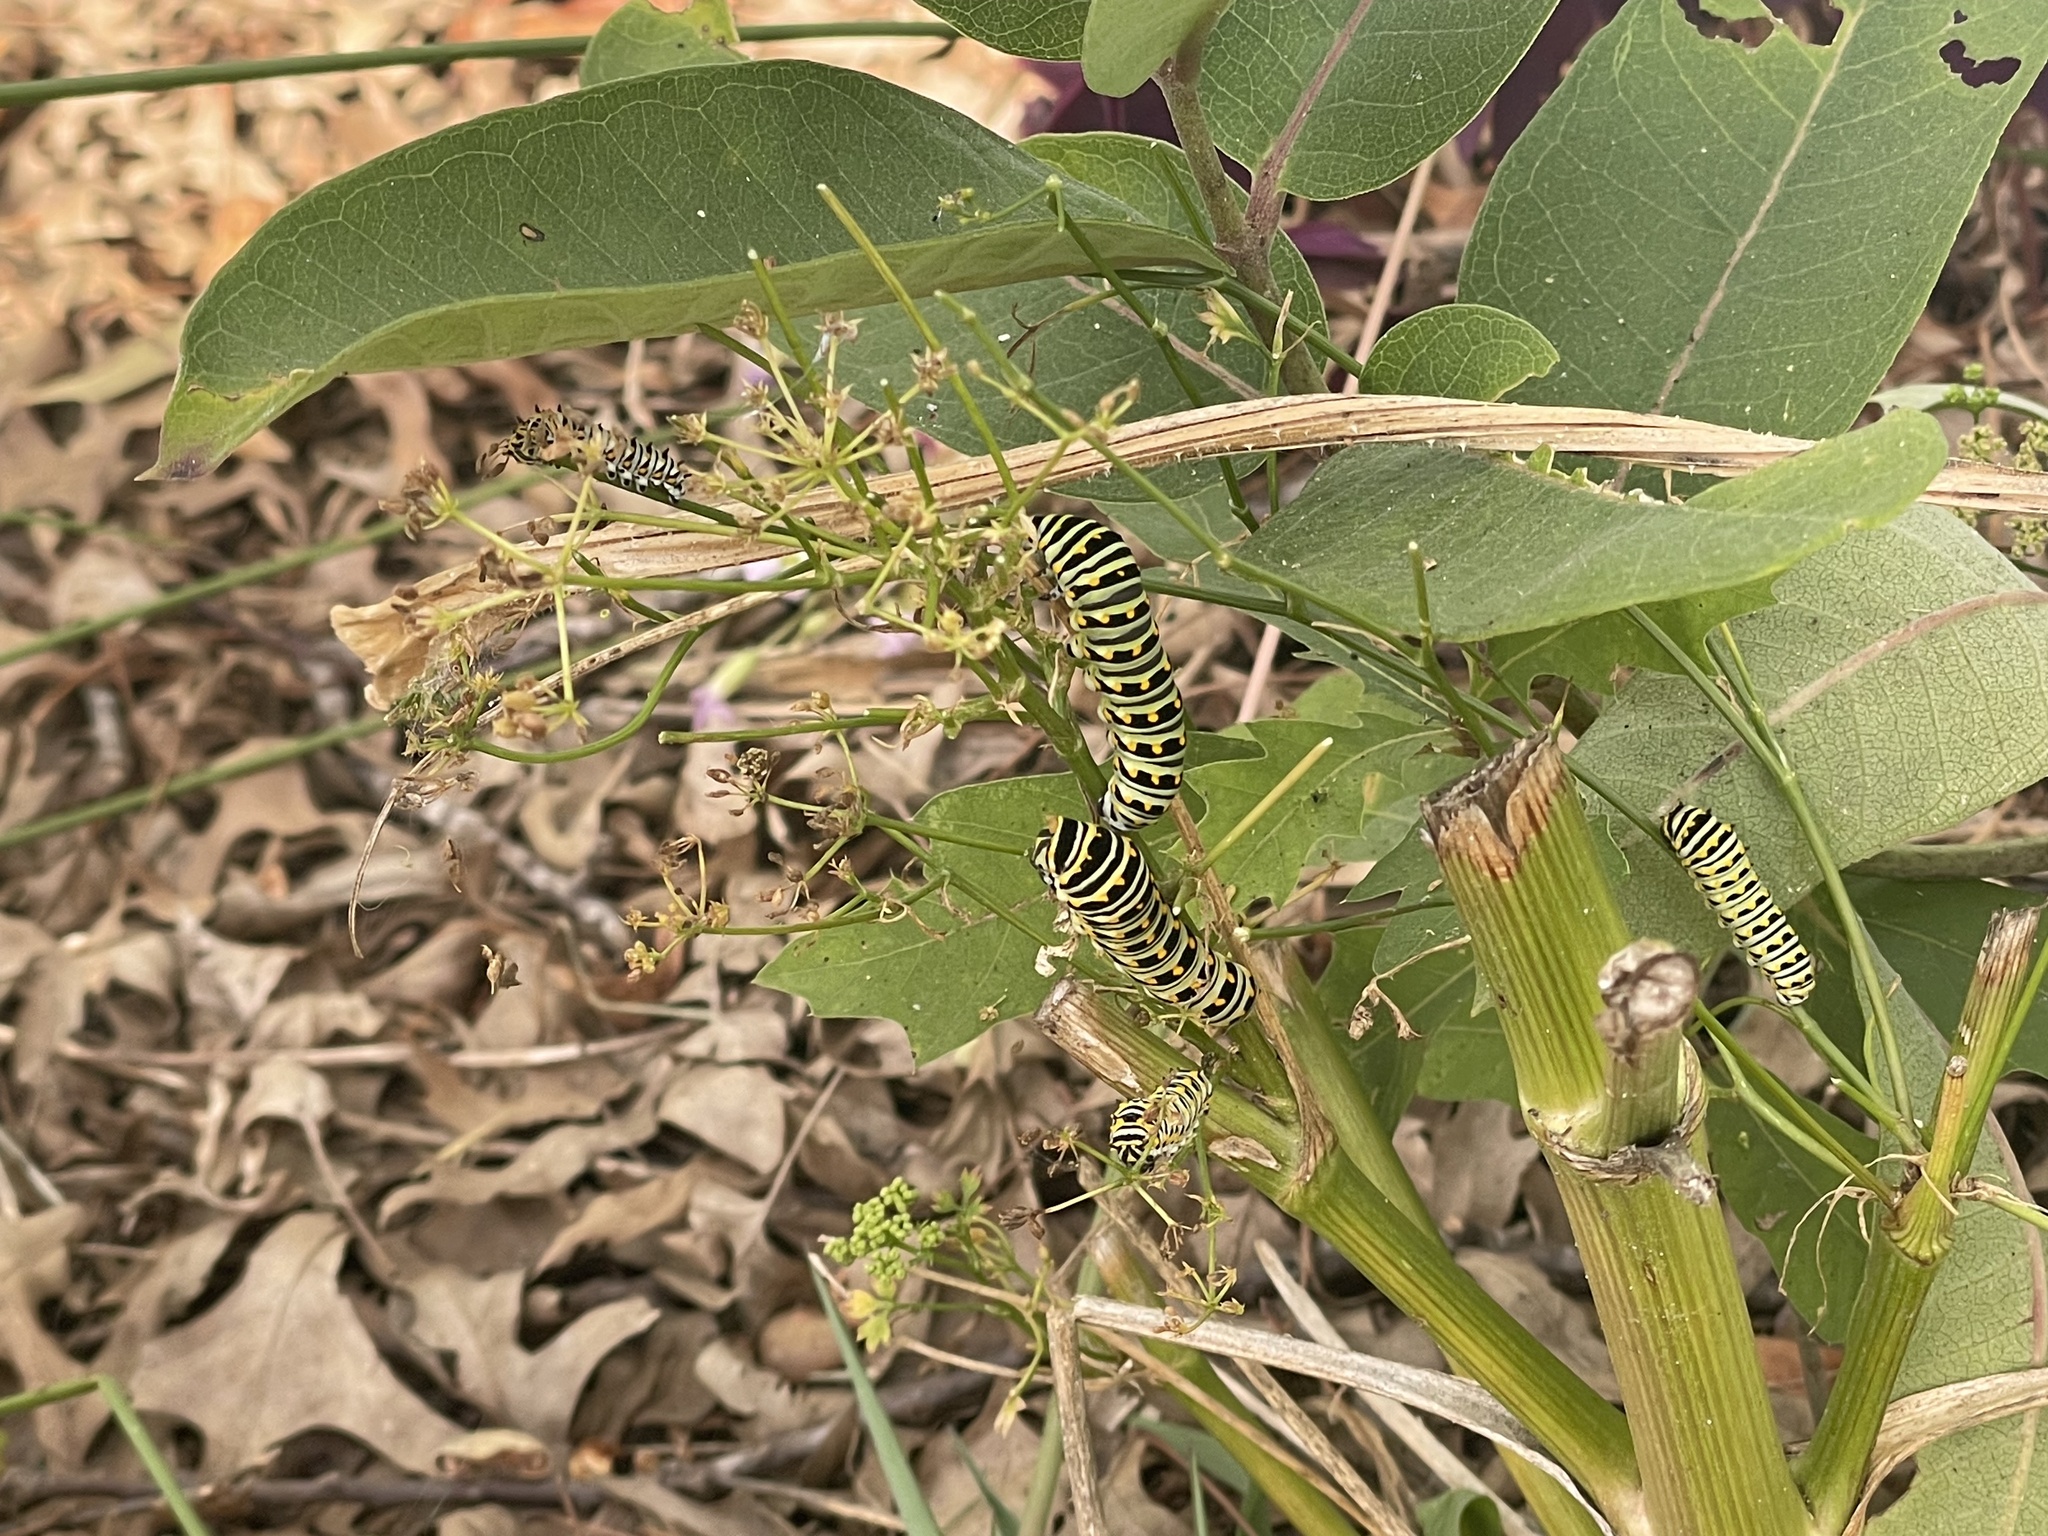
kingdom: Animalia
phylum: Arthropoda
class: Insecta
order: Lepidoptera
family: Papilionidae
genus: Papilio
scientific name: Papilio polyxenes
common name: Black swallowtail
